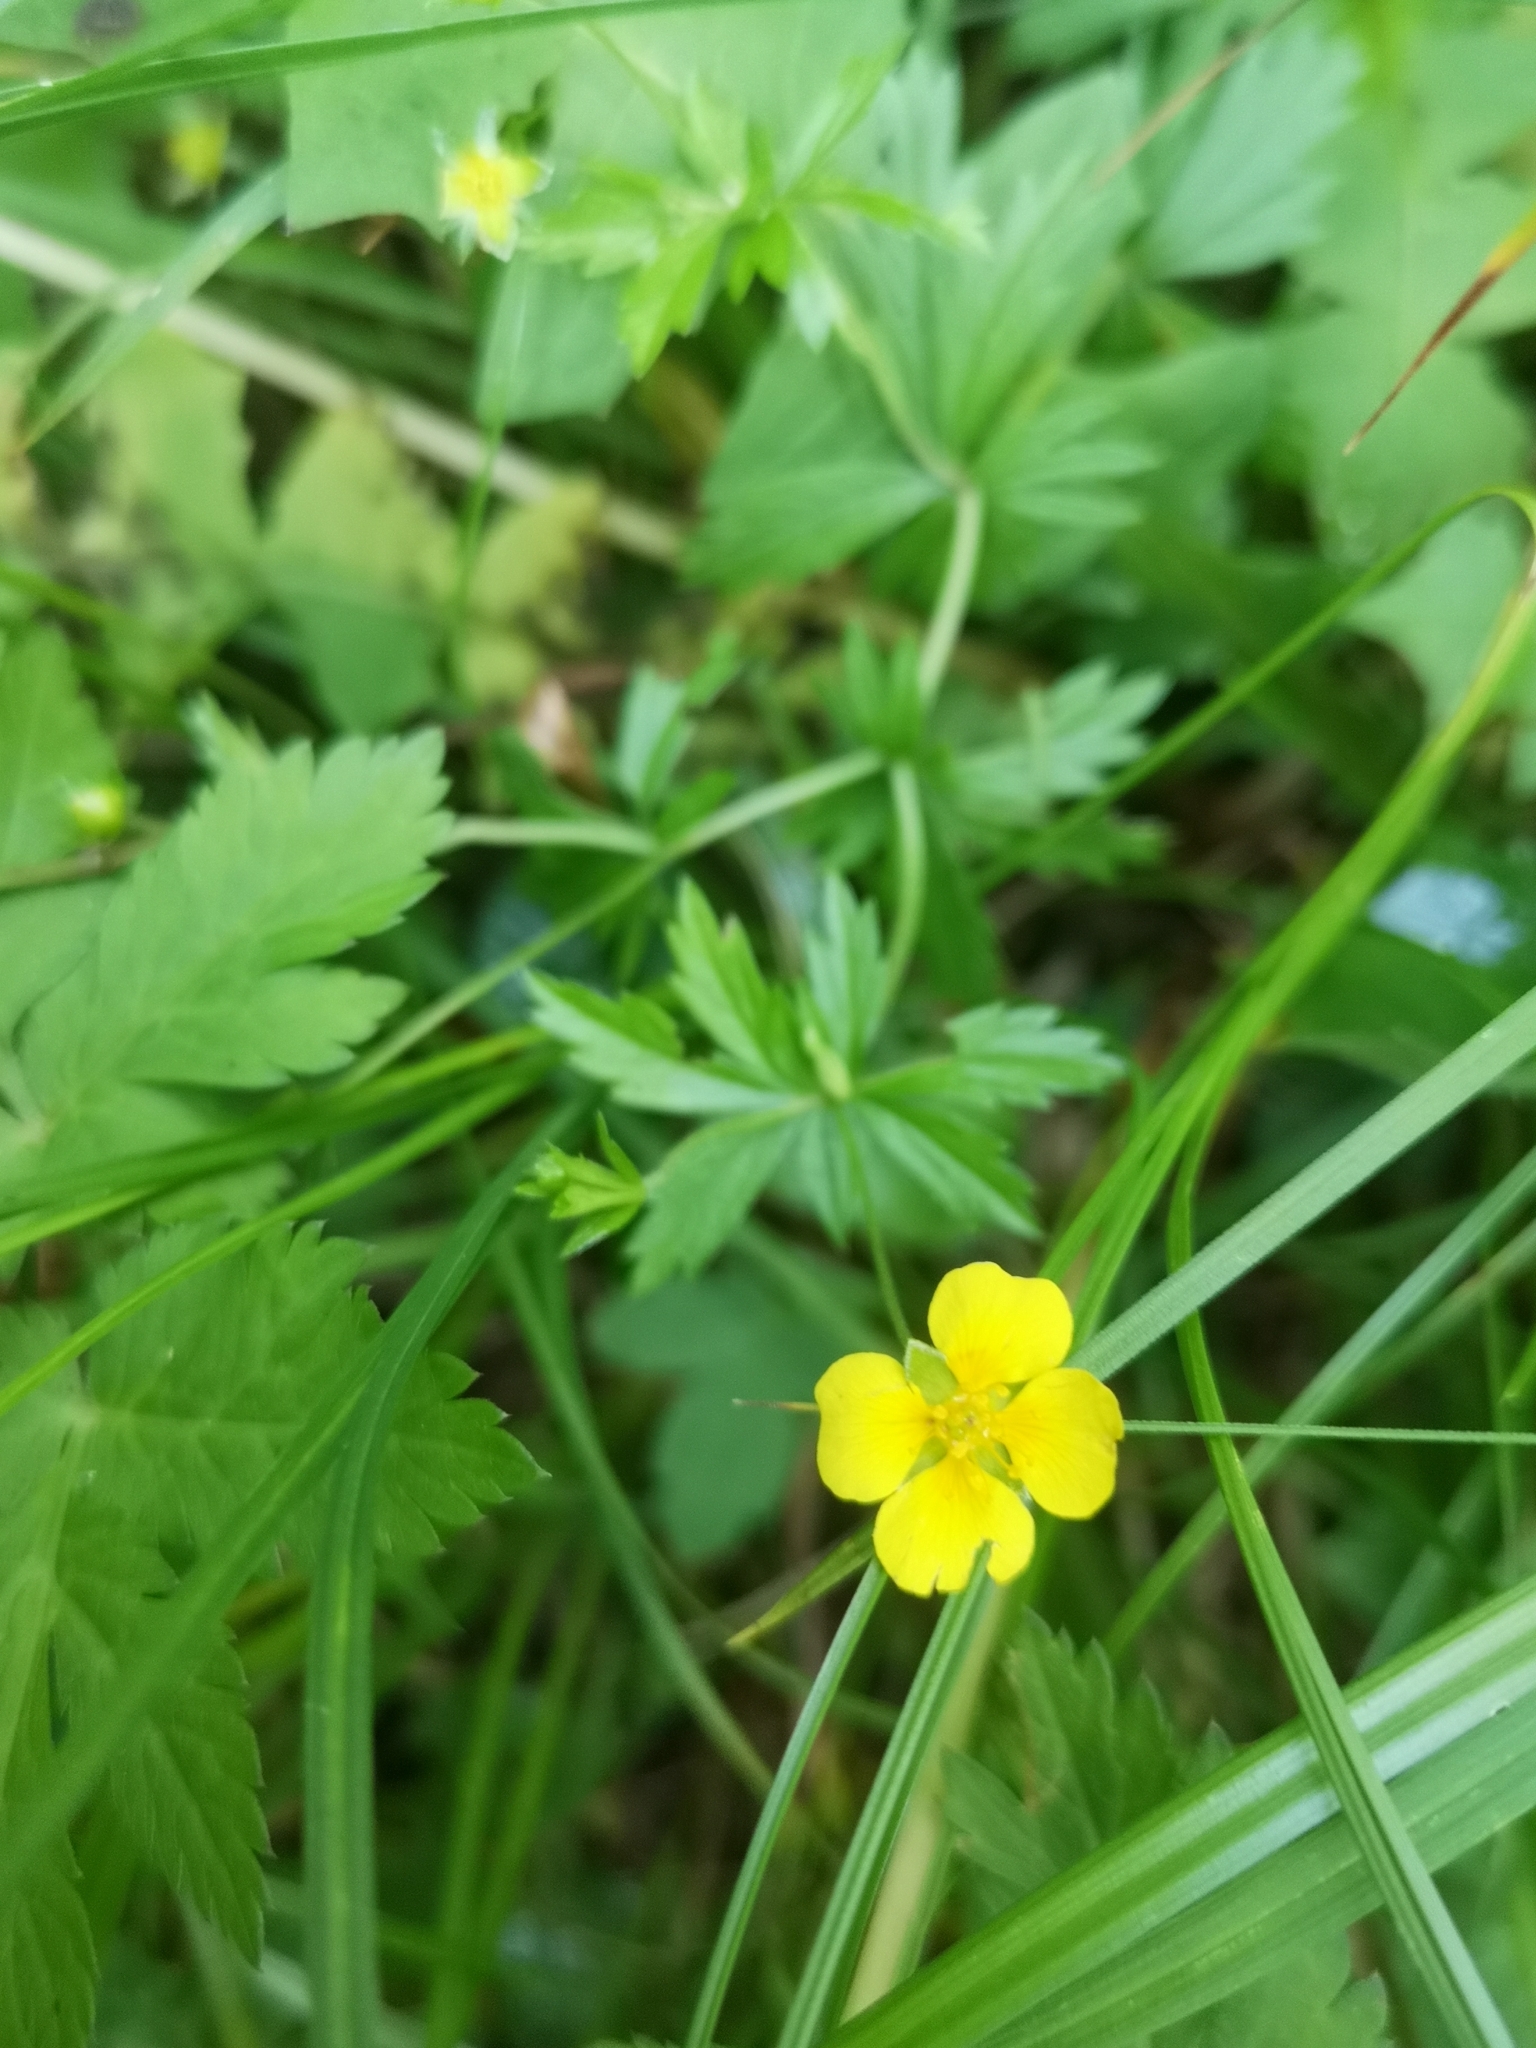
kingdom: Plantae
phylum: Tracheophyta
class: Magnoliopsida
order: Rosales
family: Rosaceae
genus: Potentilla
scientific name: Potentilla erecta
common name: Tormentil
